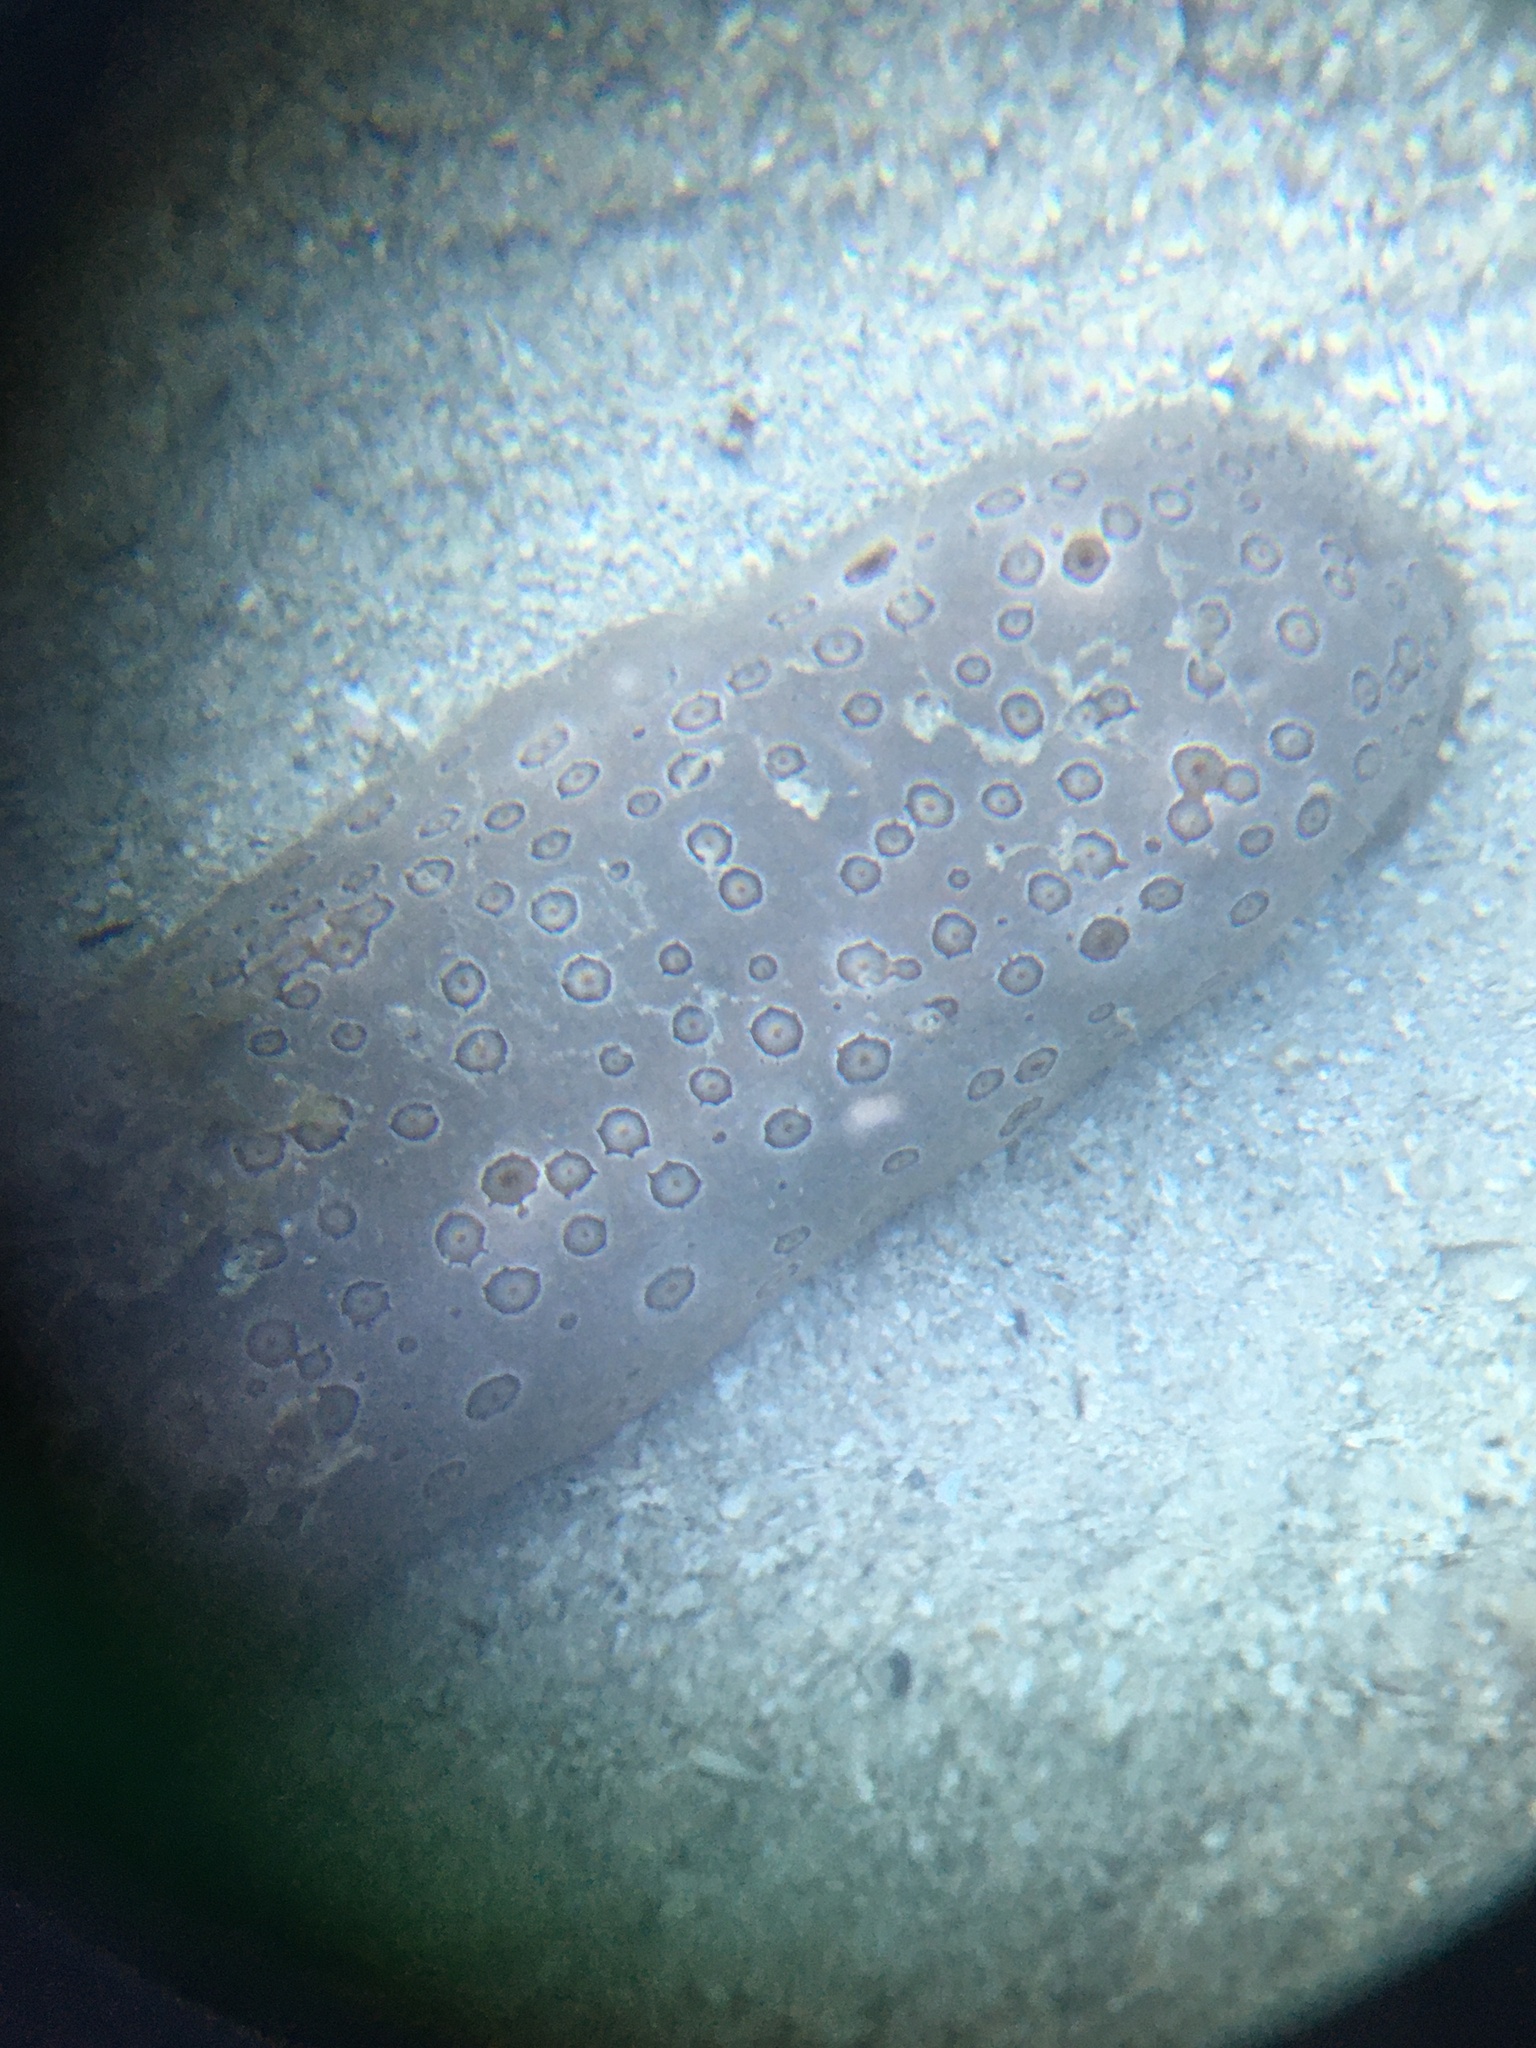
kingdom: Animalia
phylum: Echinodermata
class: Holothuroidea
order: Holothuriida
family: Holothuriidae
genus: Bohadschia
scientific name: Bohadschia argus
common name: Leopardfish
